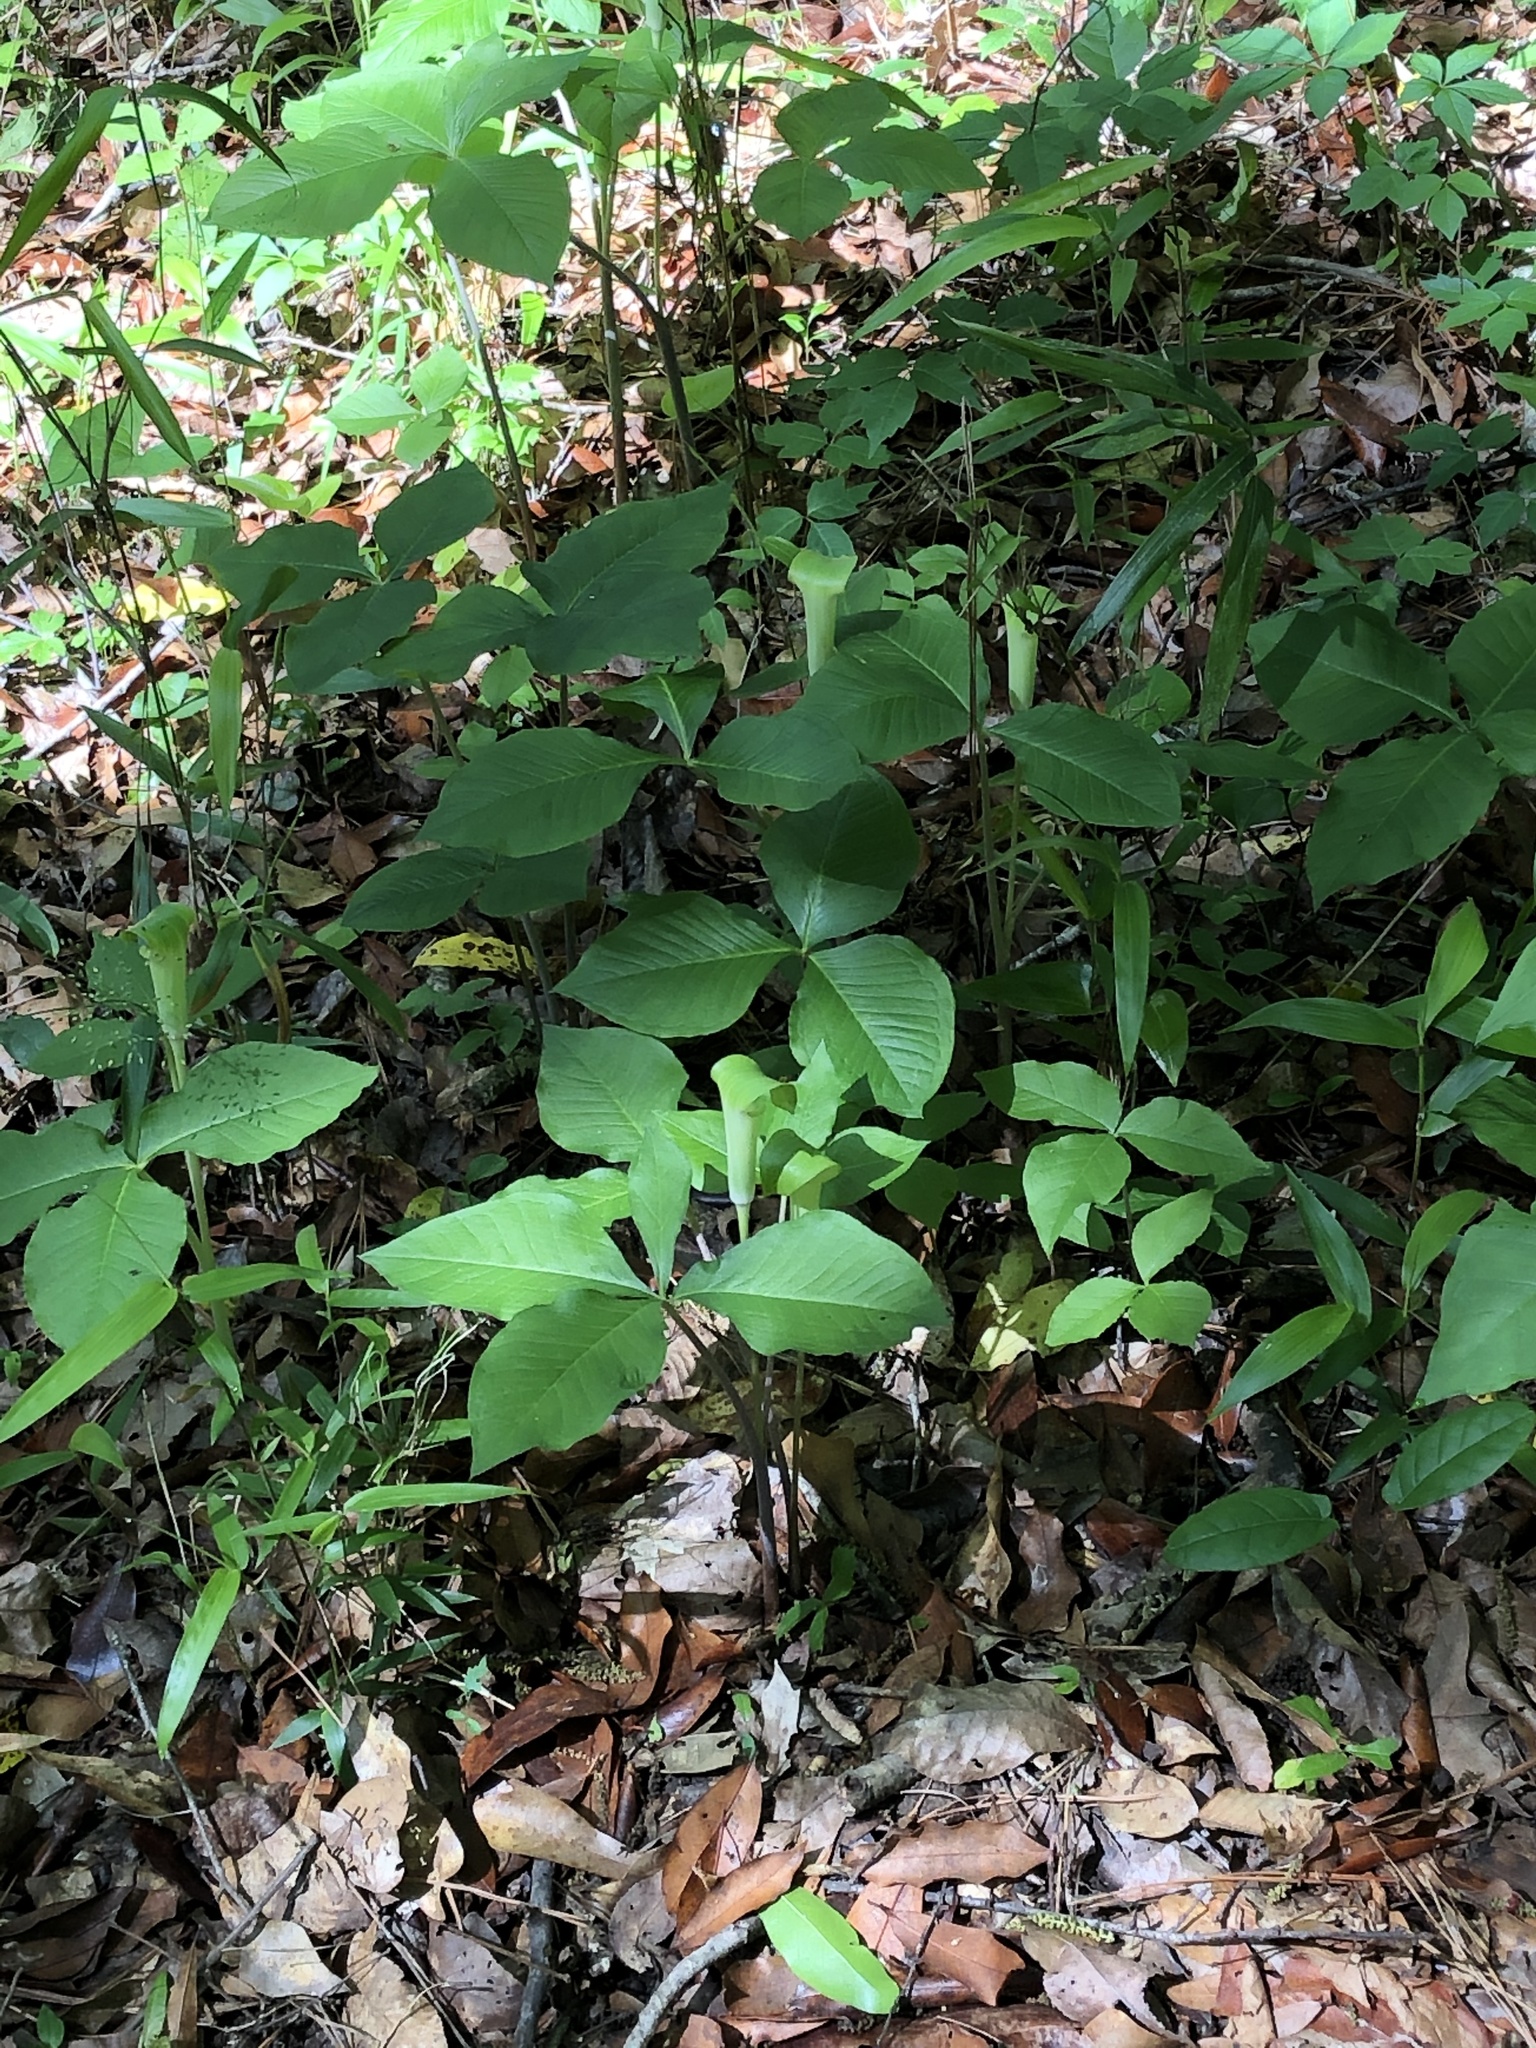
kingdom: Plantae
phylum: Tracheophyta
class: Liliopsida
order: Alismatales
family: Araceae
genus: Arisaema
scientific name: Arisaema quinatum
